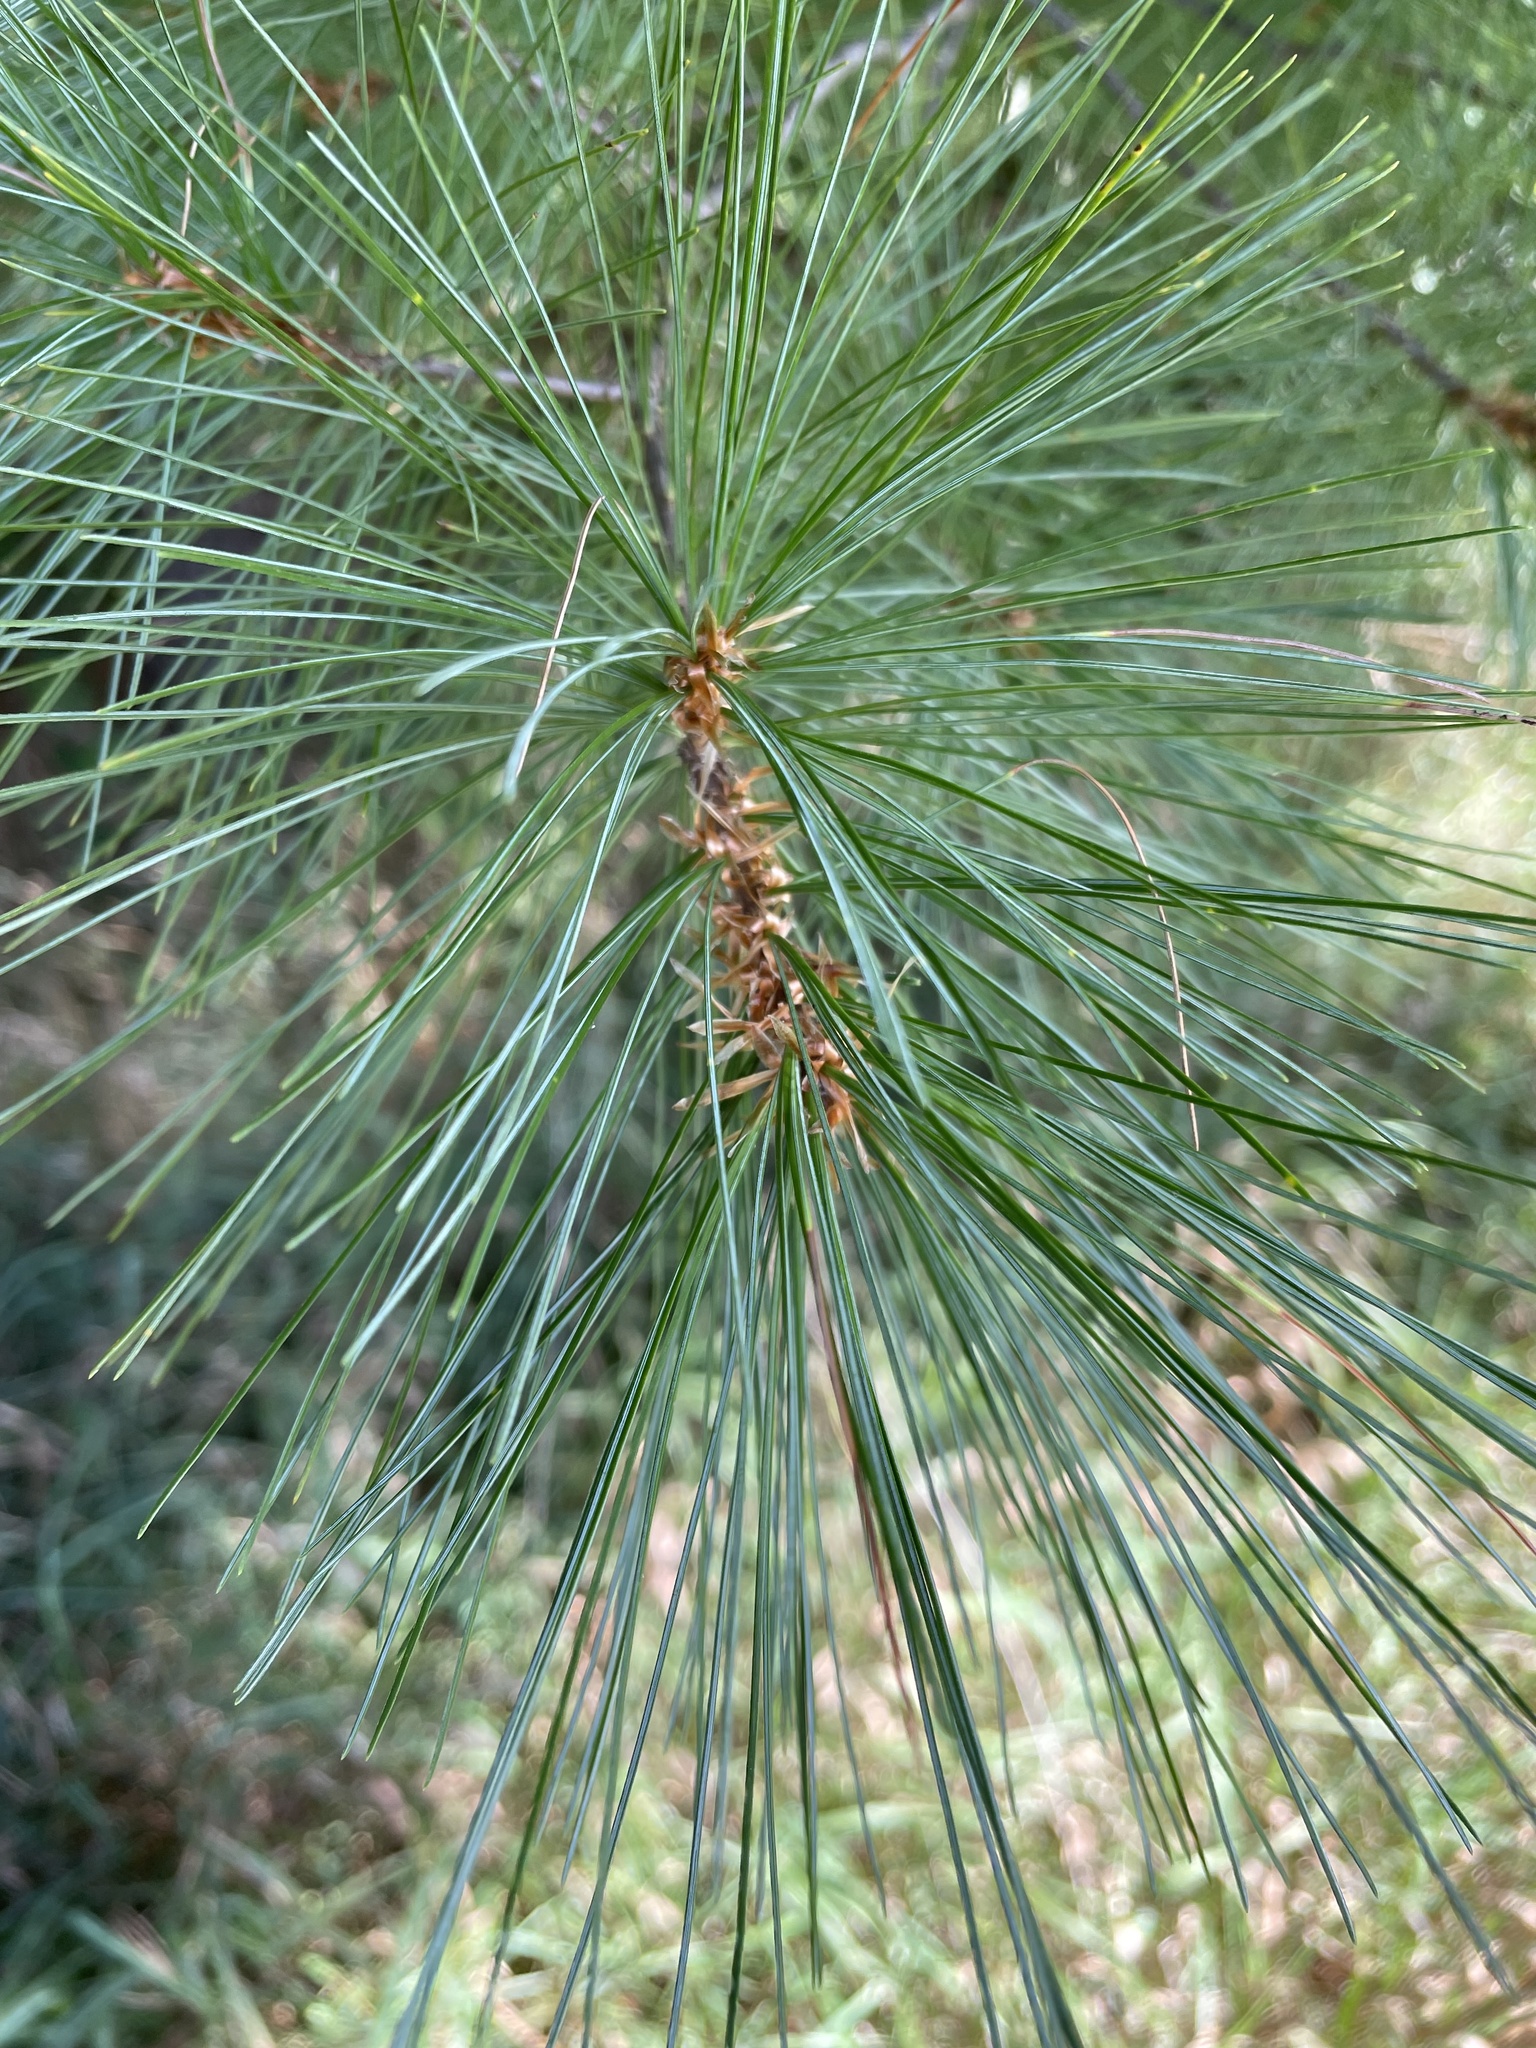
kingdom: Plantae
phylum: Tracheophyta
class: Pinopsida
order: Pinales
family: Pinaceae
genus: Pinus
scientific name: Pinus strobus
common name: Weymouth pine
